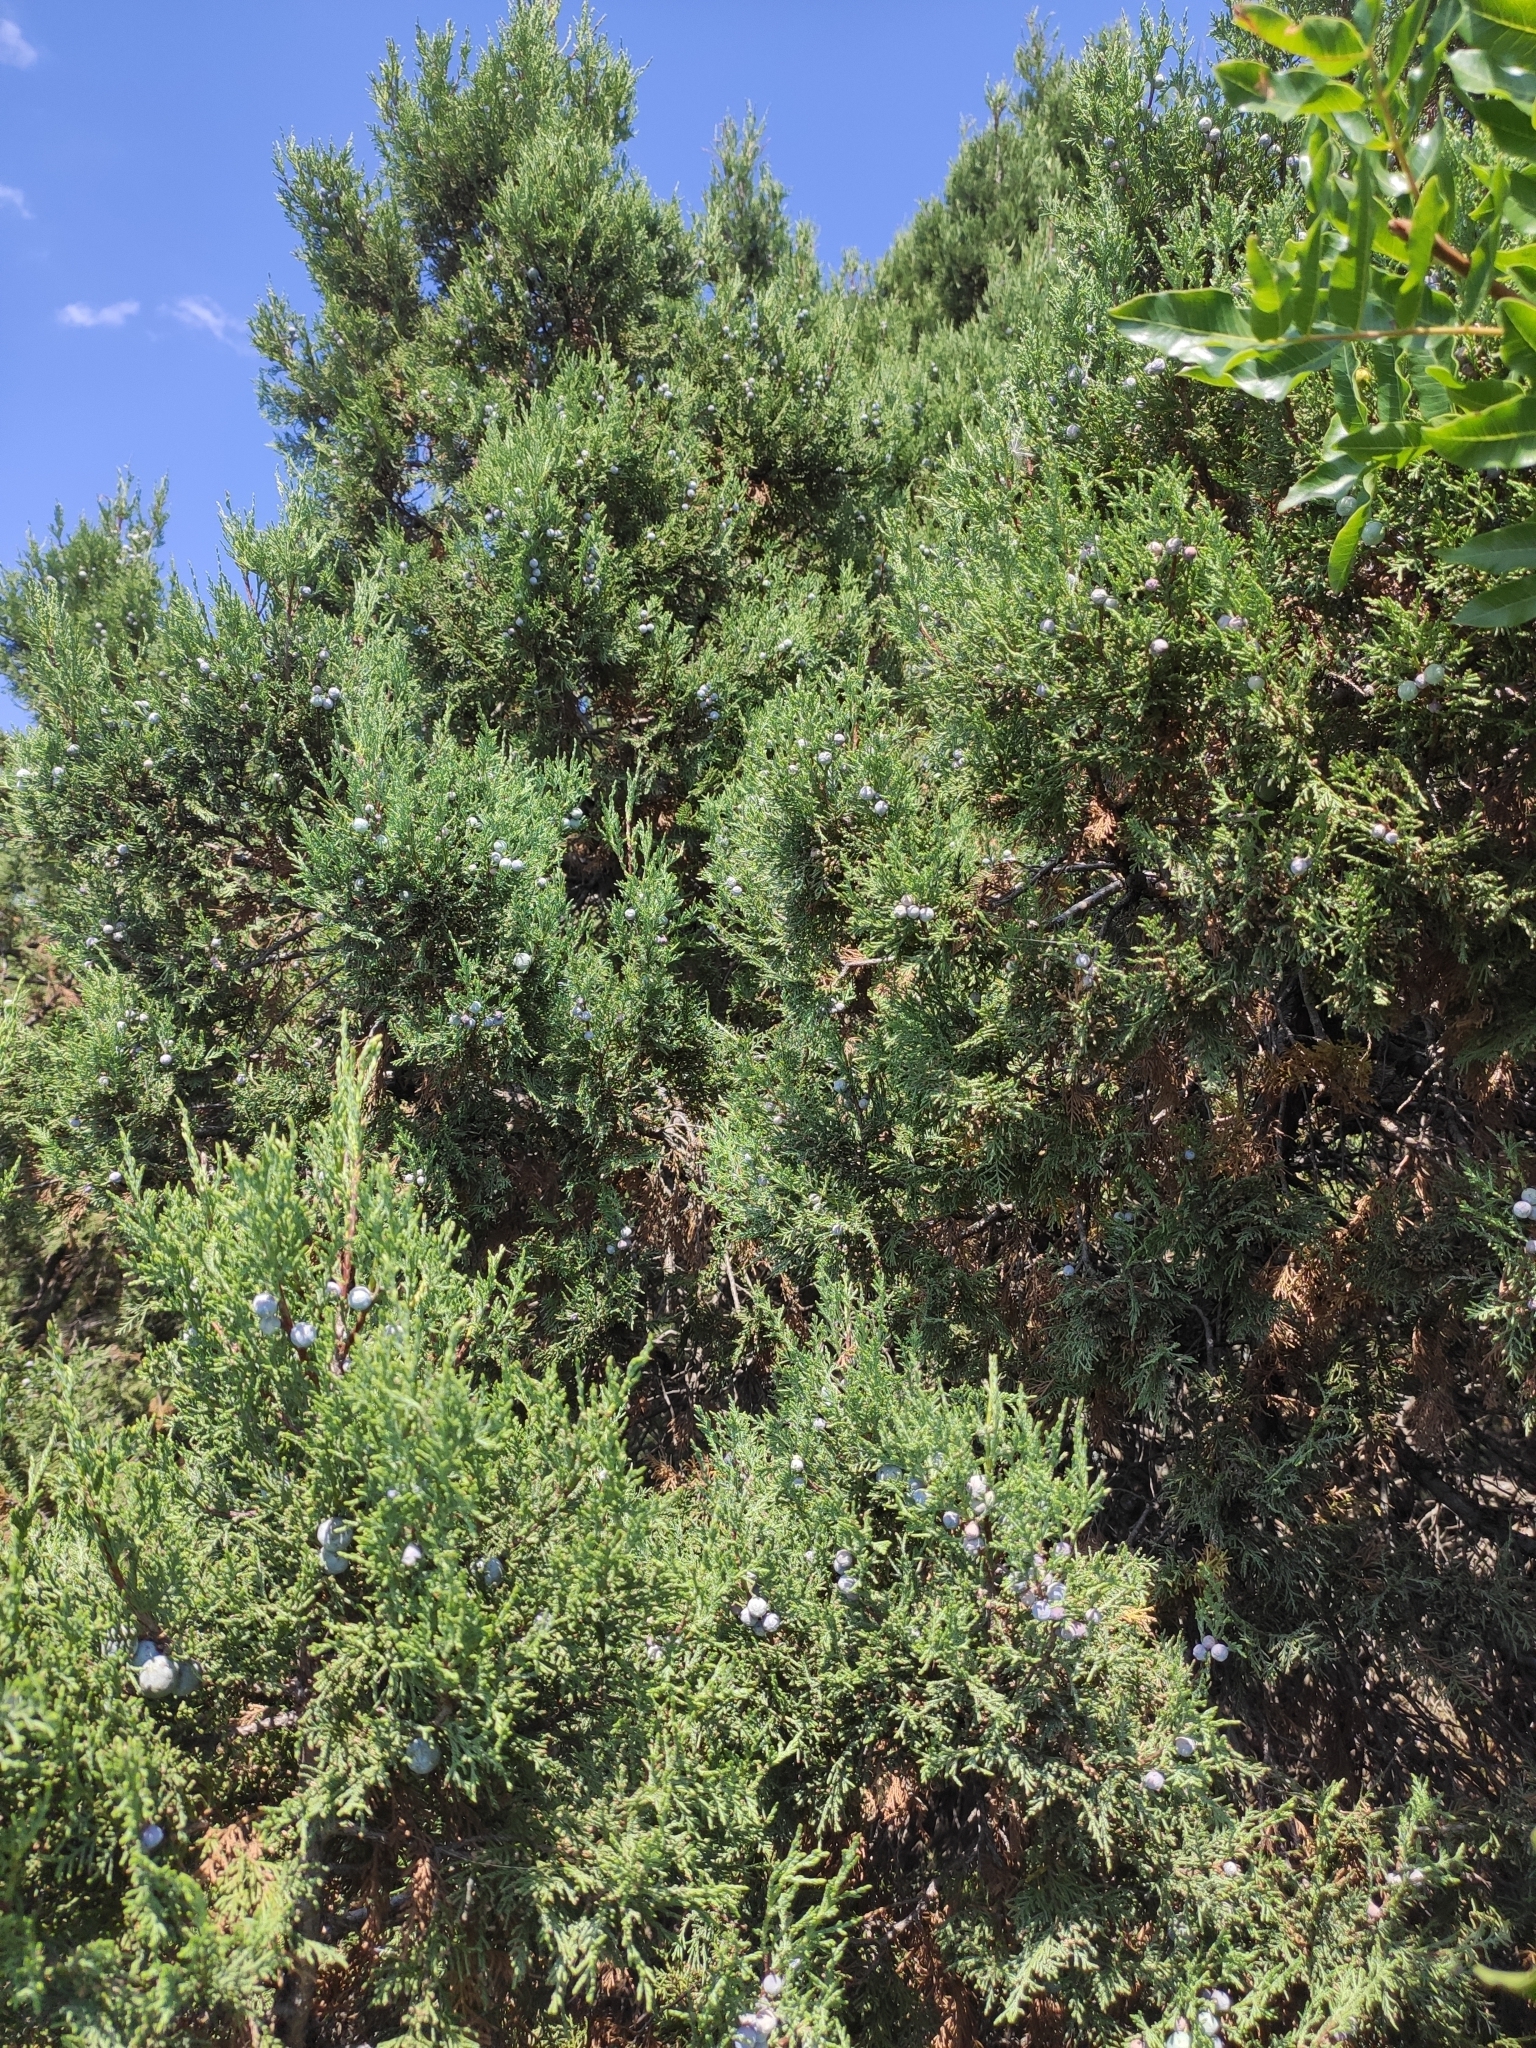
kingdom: Plantae
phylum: Tracheophyta
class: Pinopsida
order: Pinales
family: Cupressaceae
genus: Juniperus
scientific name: Juniperus excelsa
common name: Crimean juniper
